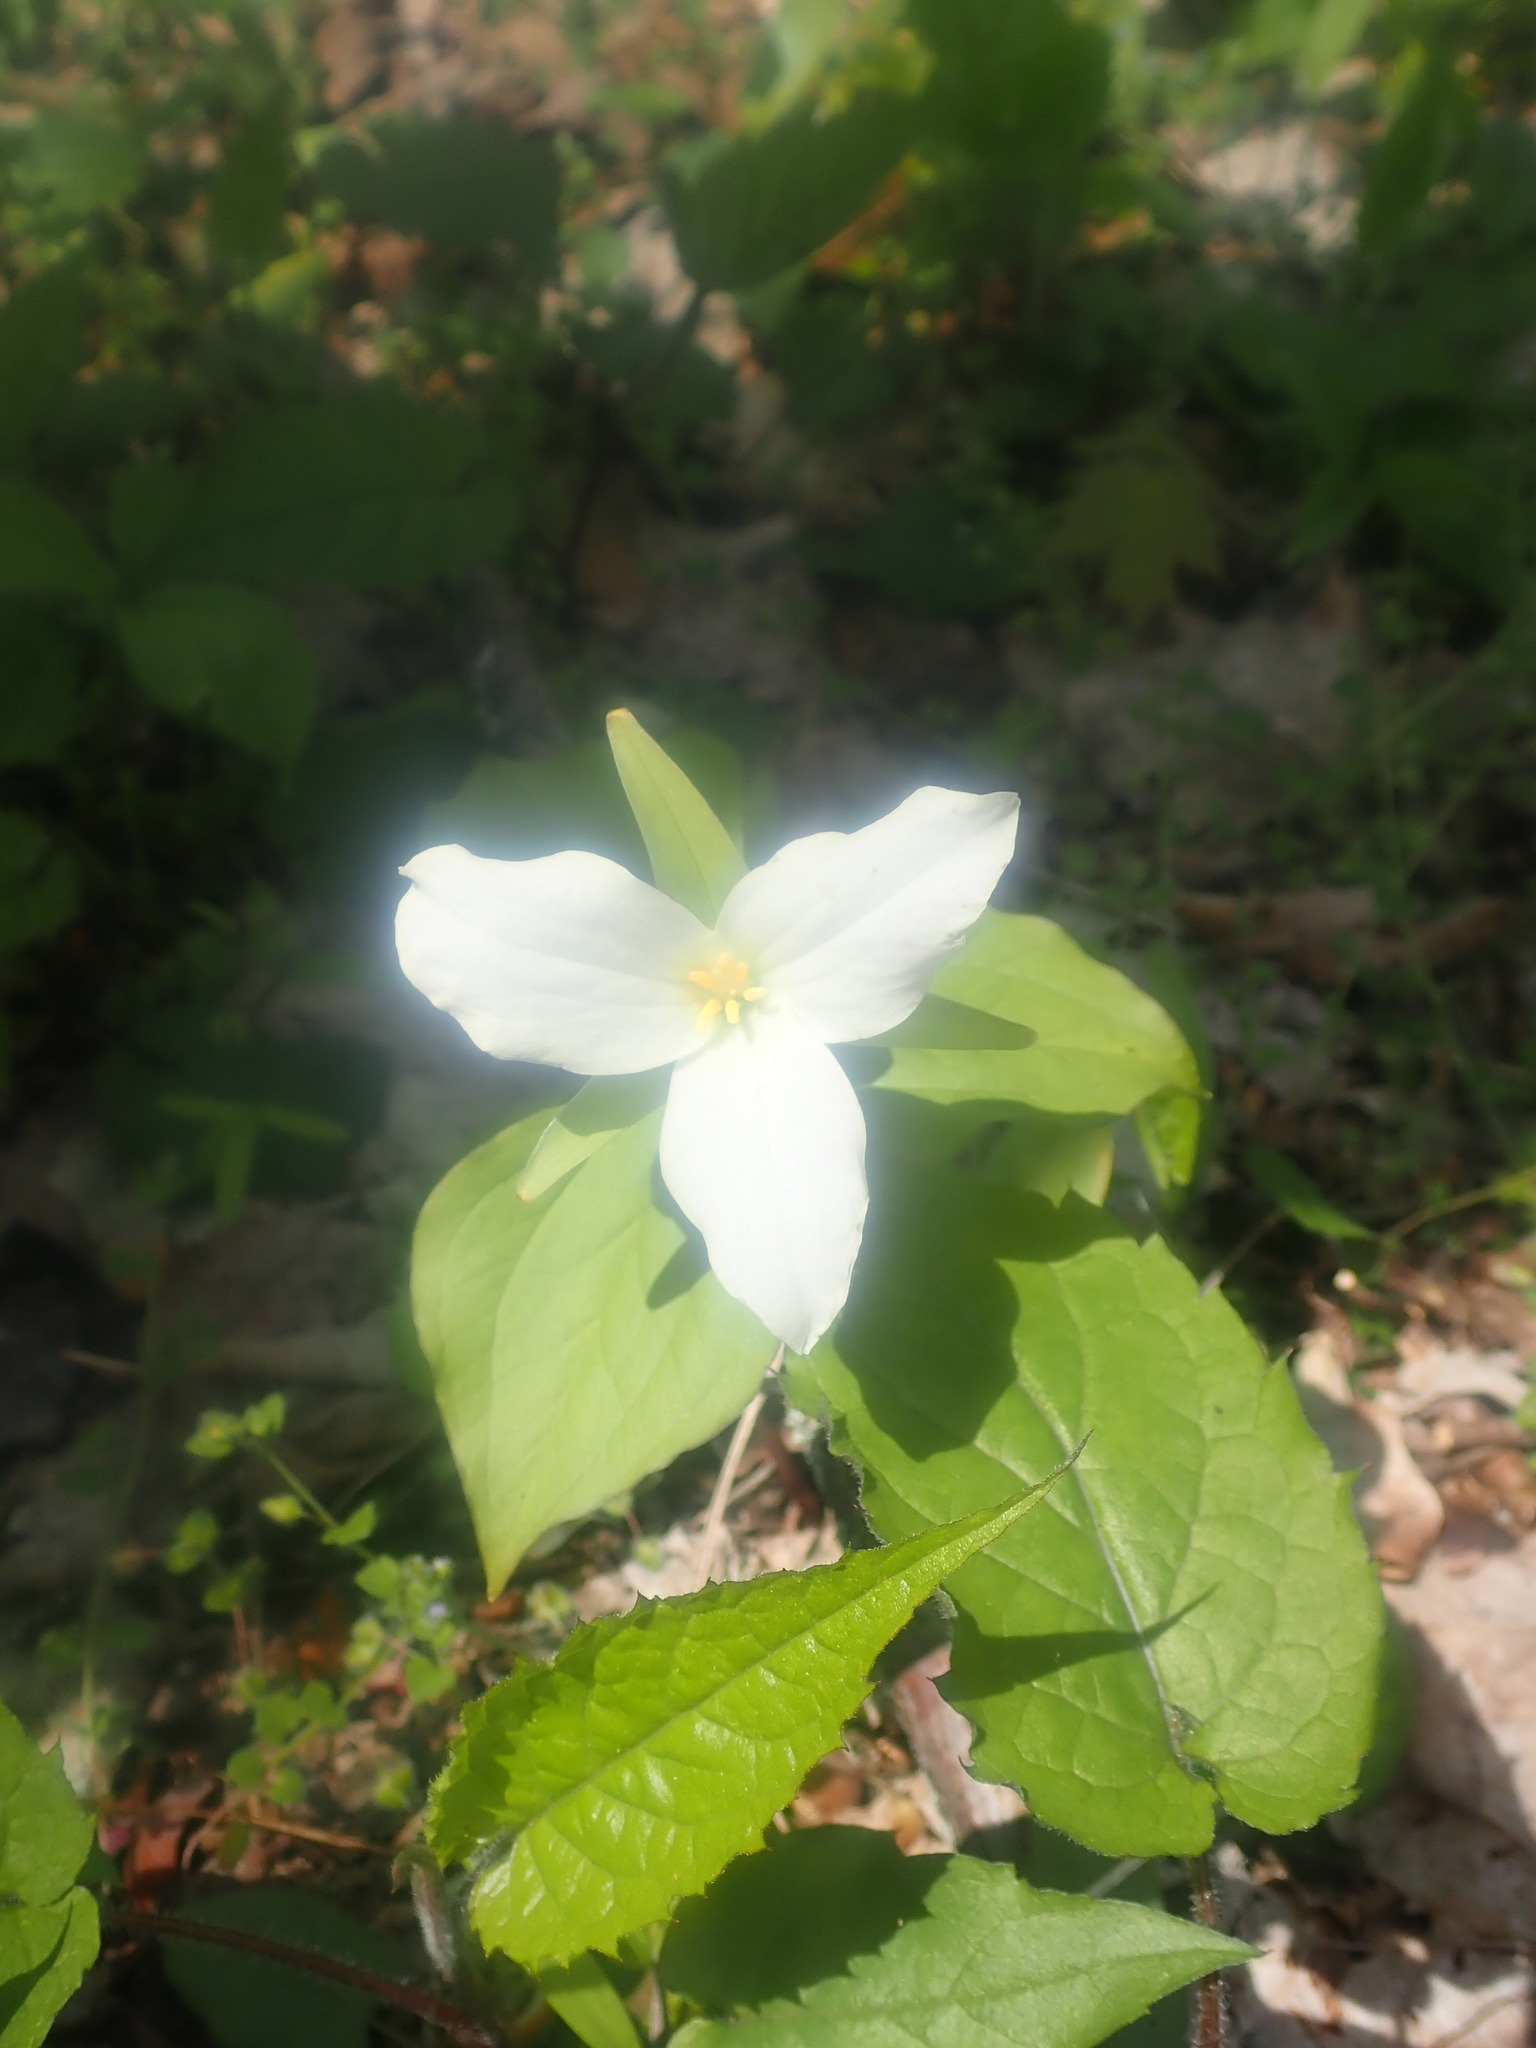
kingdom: Plantae
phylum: Tracheophyta
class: Liliopsida
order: Liliales
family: Melanthiaceae
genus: Trillium
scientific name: Trillium grandiflorum
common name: Great white trillium
